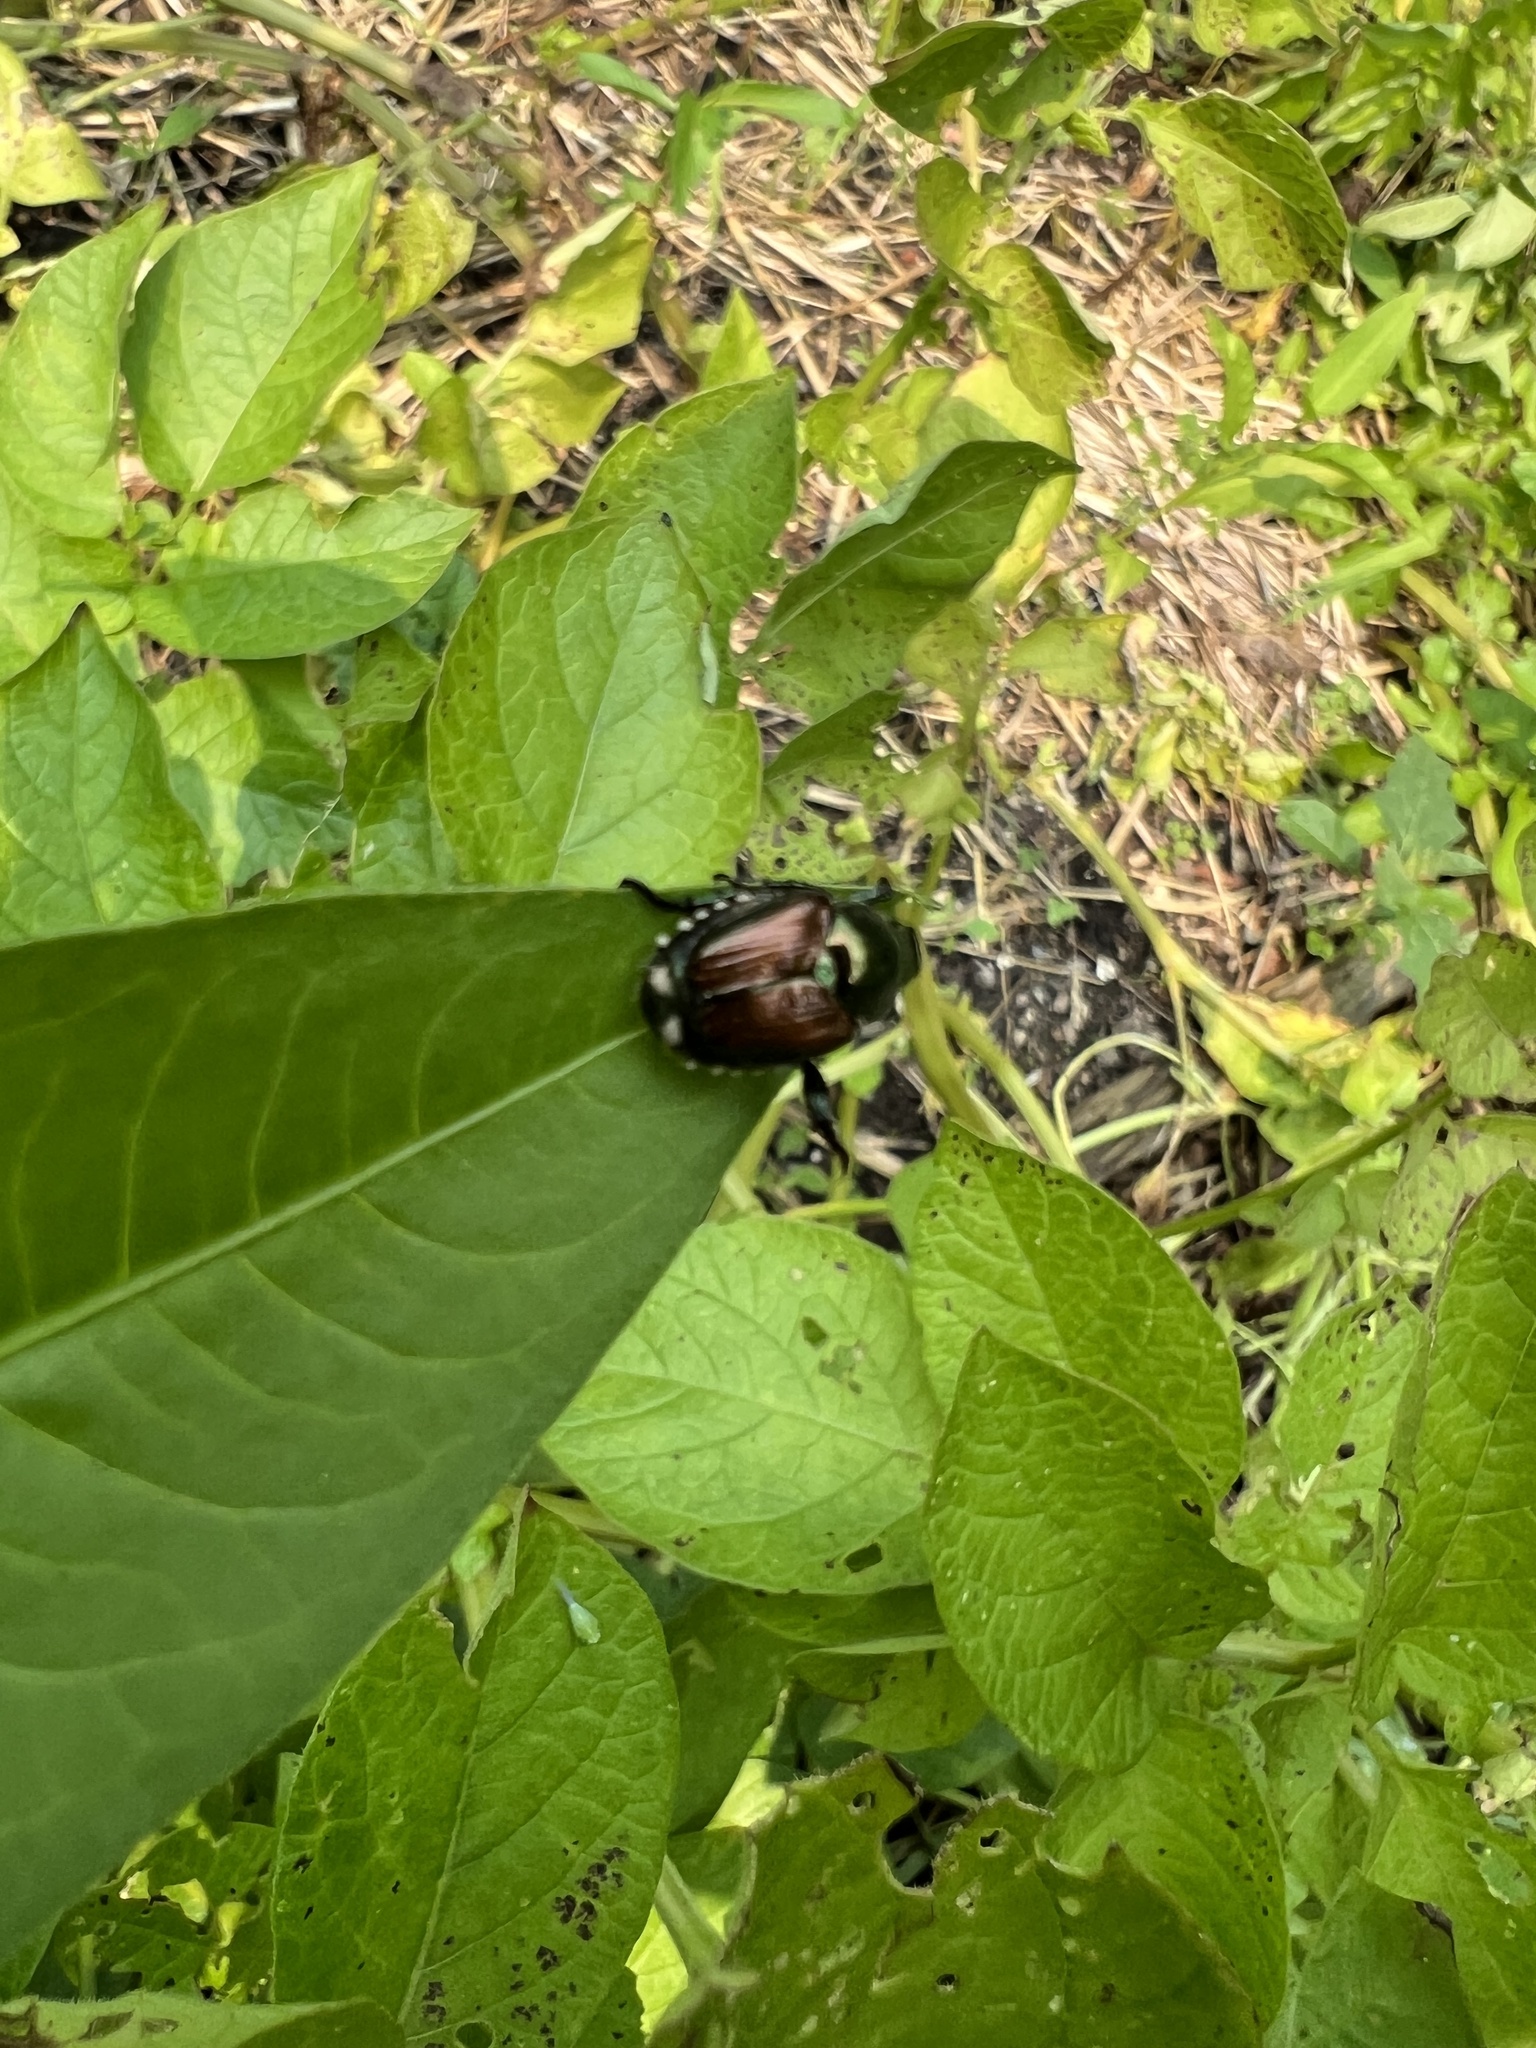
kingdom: Animalia
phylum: Arthropoda
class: Insecta
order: Coleoptera
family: Scarabaeidae
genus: Popillia
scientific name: Popillia japonica
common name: Japanese beetle
